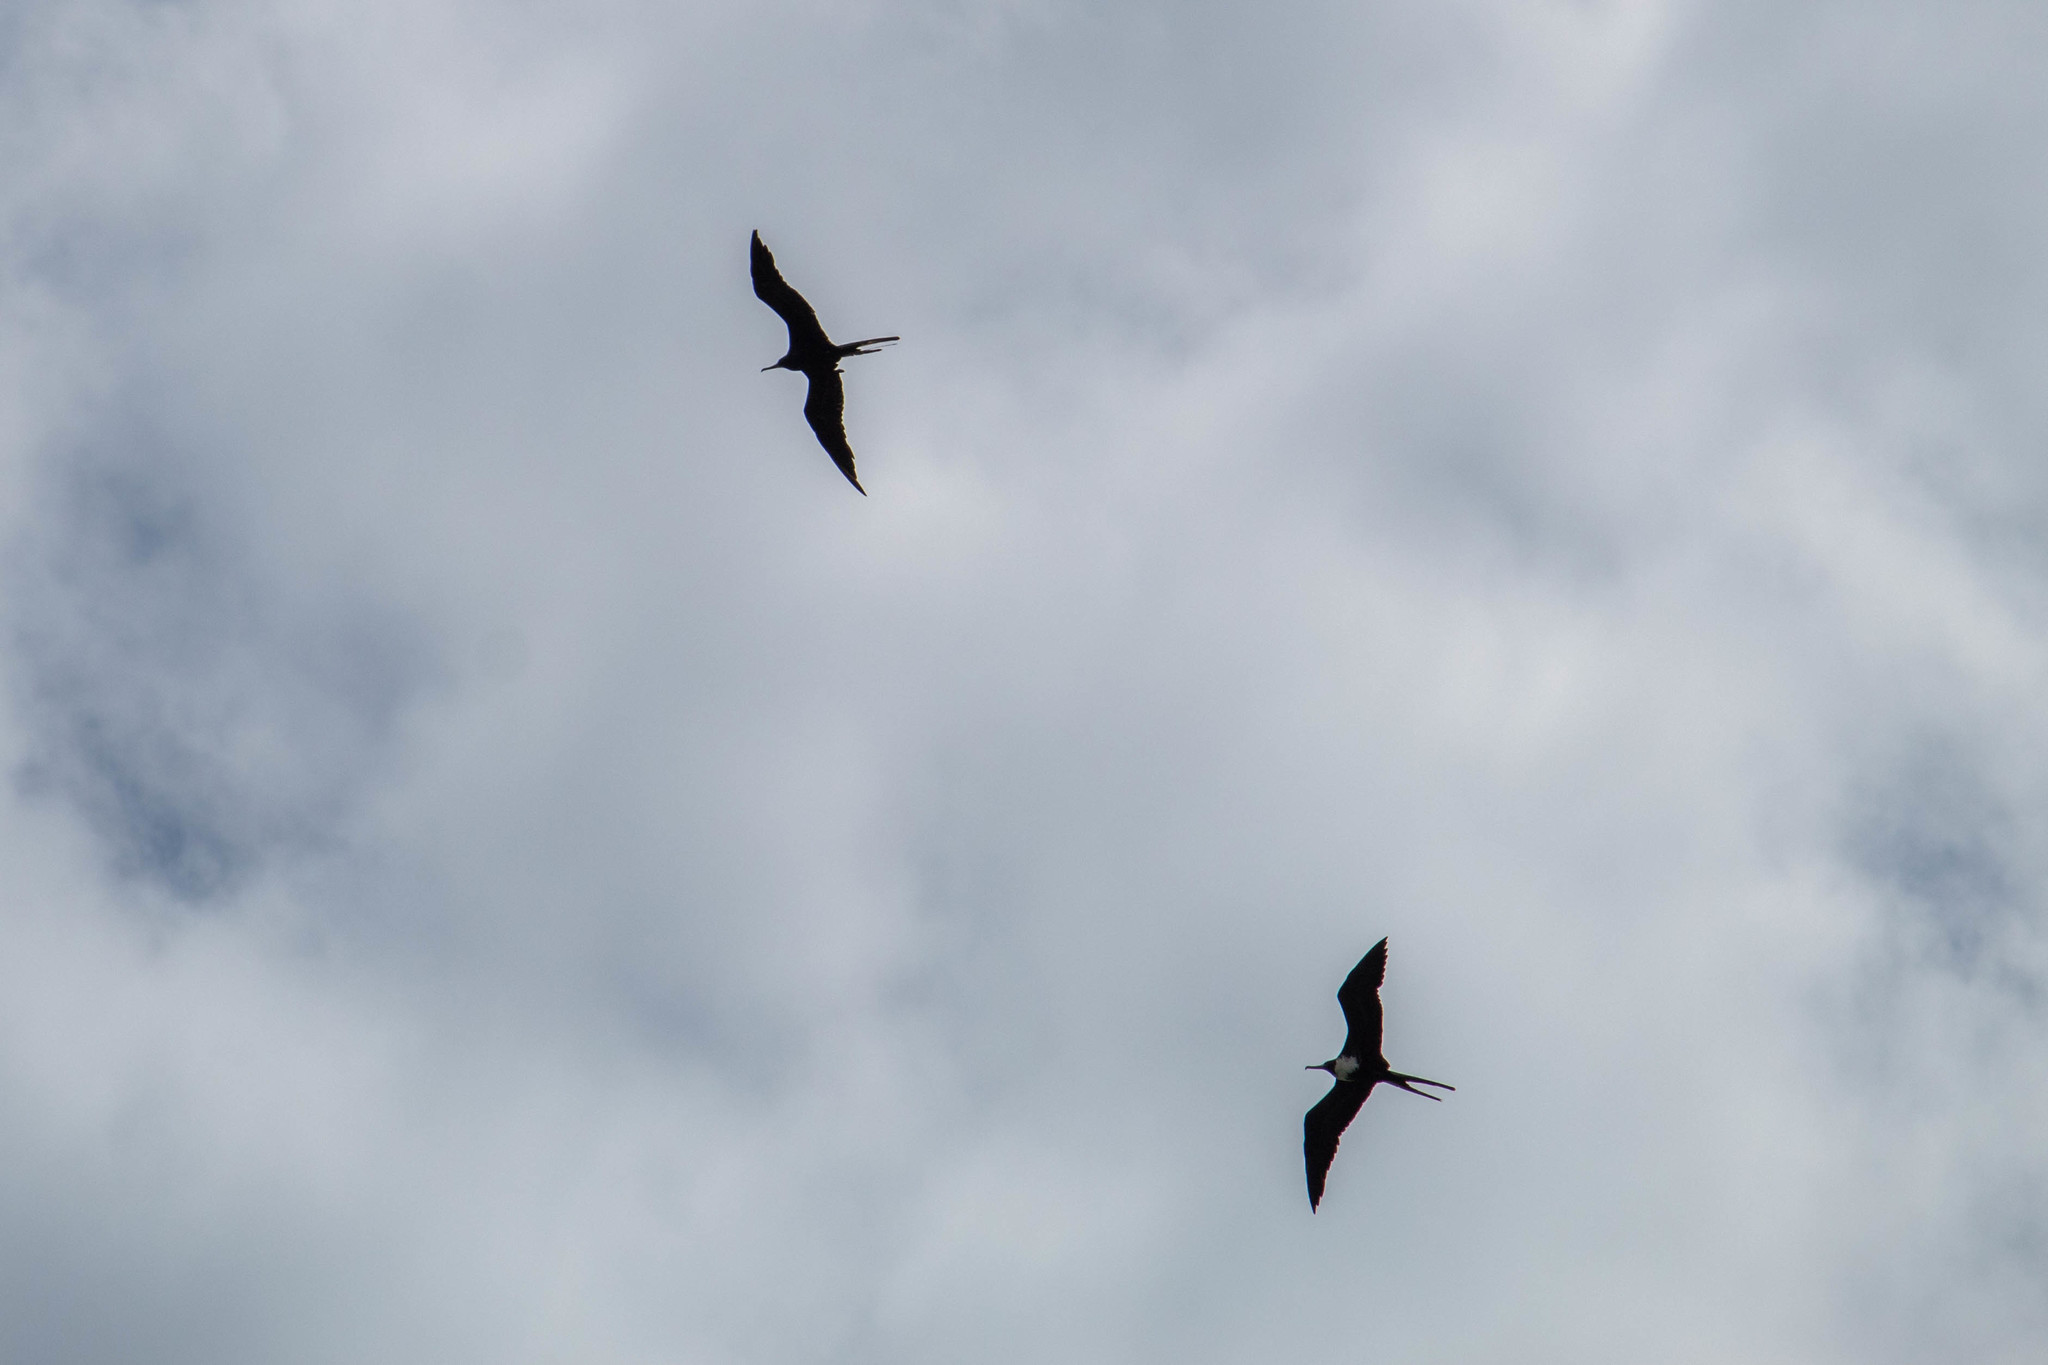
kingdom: Animalia
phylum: Chordata
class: Aves
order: Suliformes
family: Fregatidae
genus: Fregata
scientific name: Fregata magnificens
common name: Magnificent frigatebird
